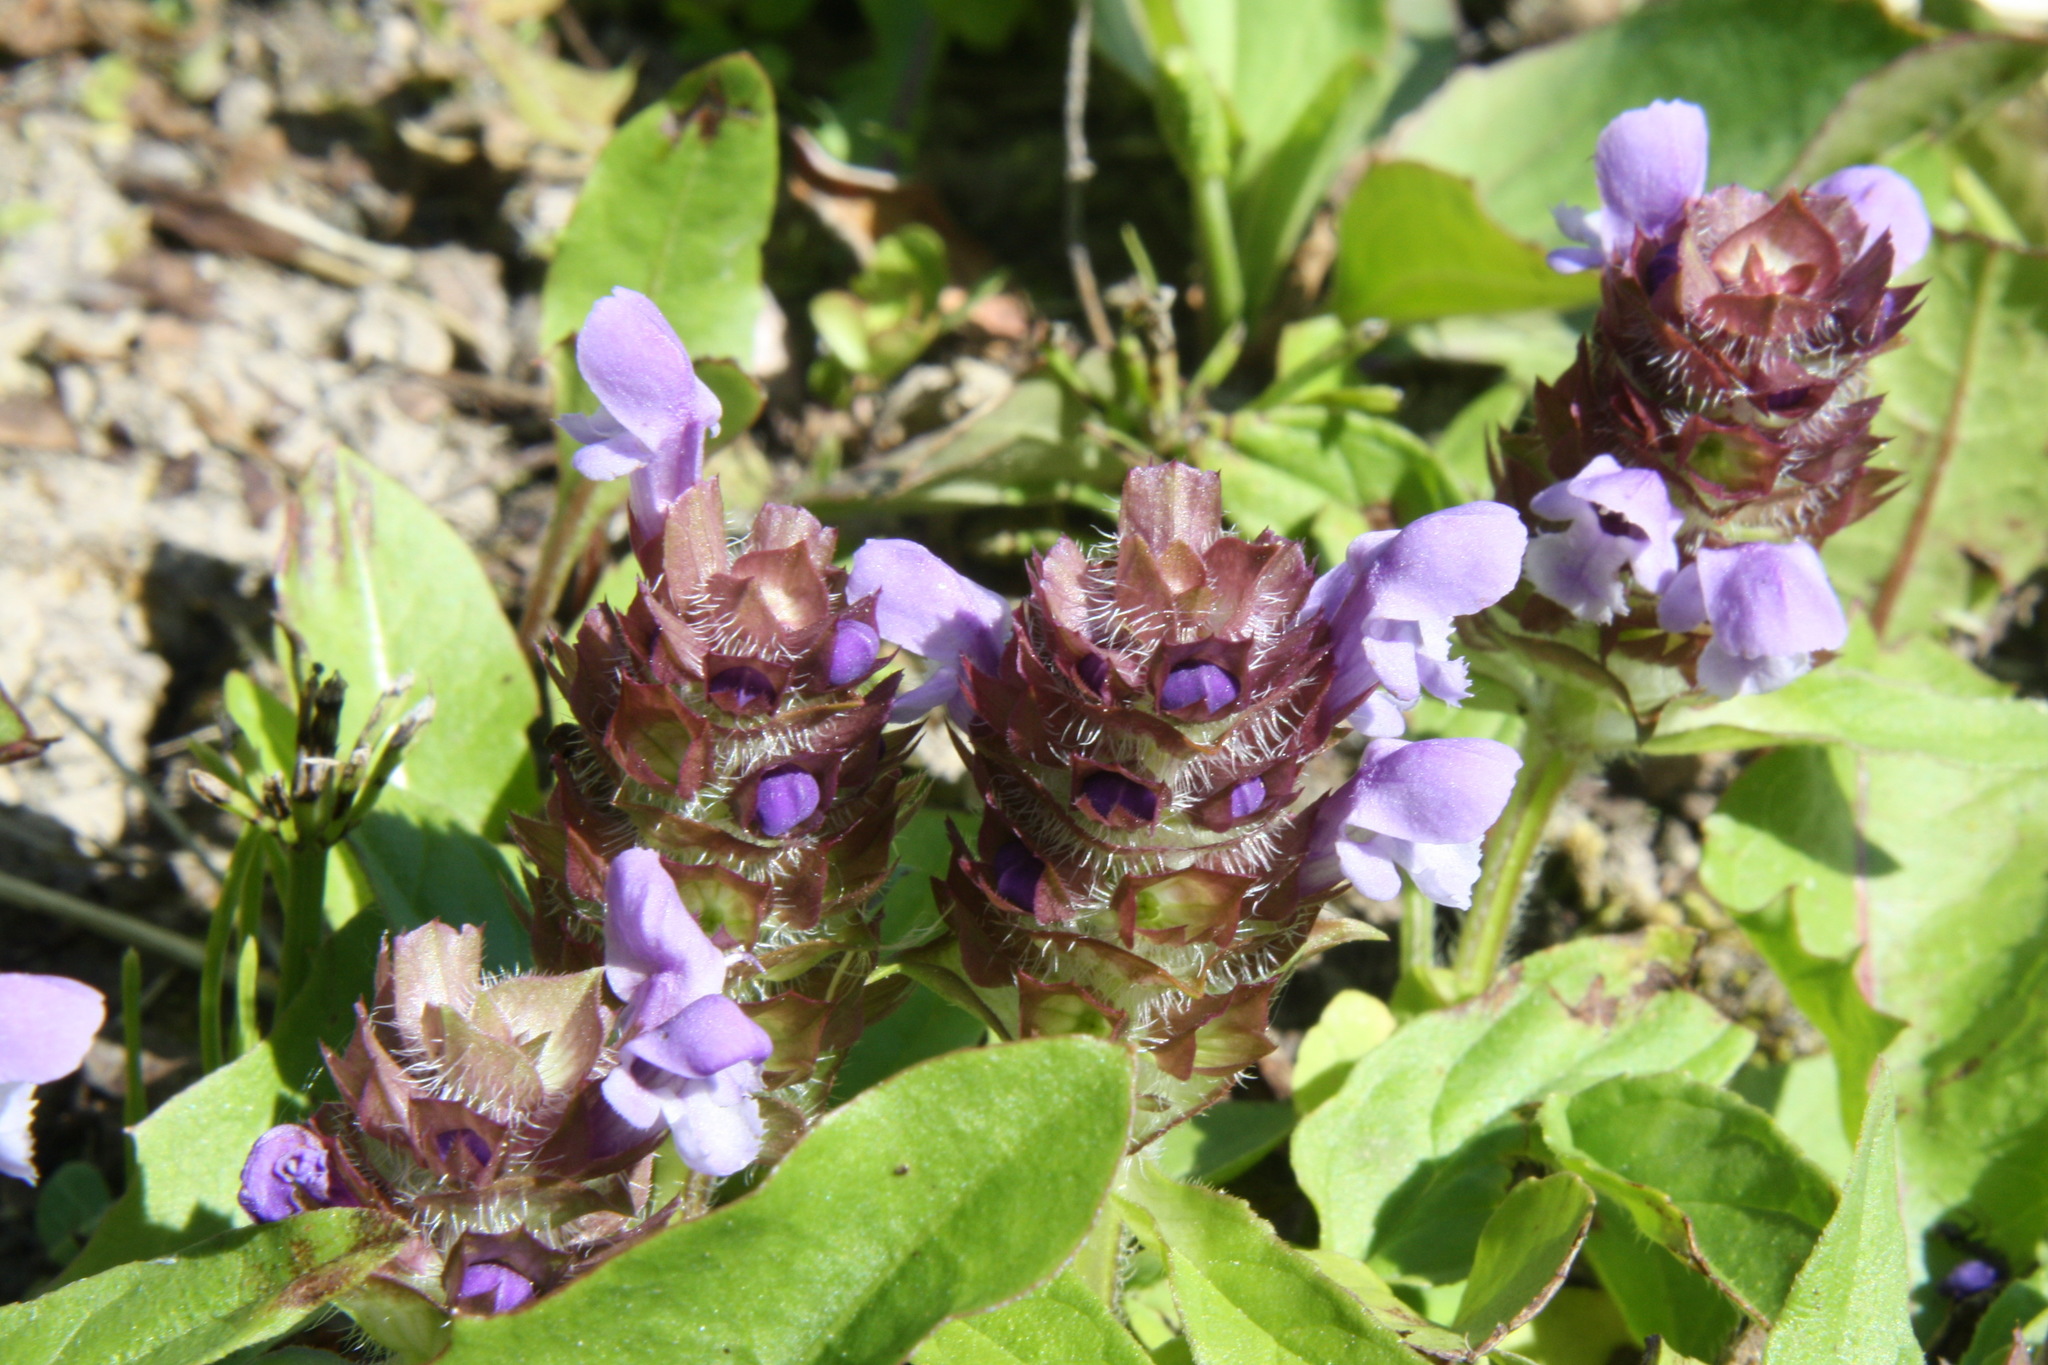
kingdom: Plantae
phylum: Tracheophyta
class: Magnoliopsida
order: Lamiales
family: Lamiaceae
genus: Prunella
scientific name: Prunella vulgaris
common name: Heal-all
